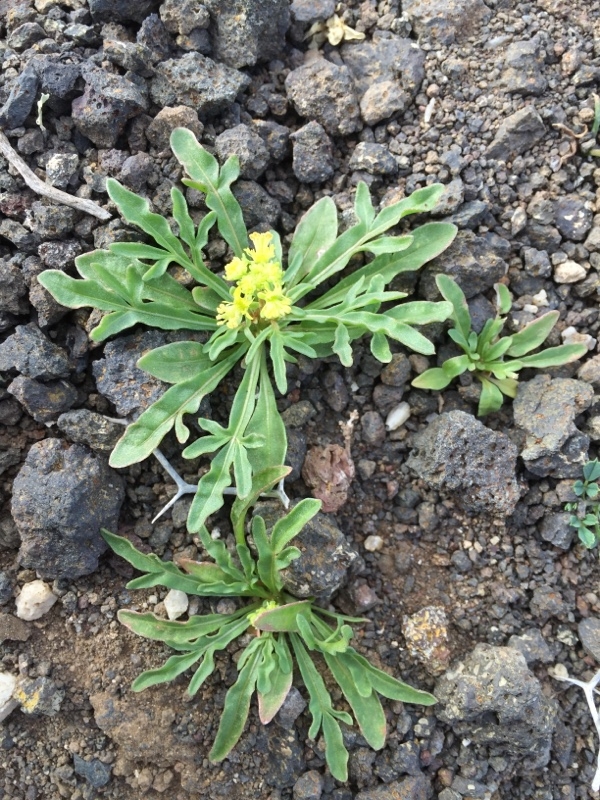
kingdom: Plantae
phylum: Tracheophyta
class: Magnoliopsida
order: Brassicales
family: Brassicaceae
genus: Sisymbrium
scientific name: Sisymbrium irio
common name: London rocket
